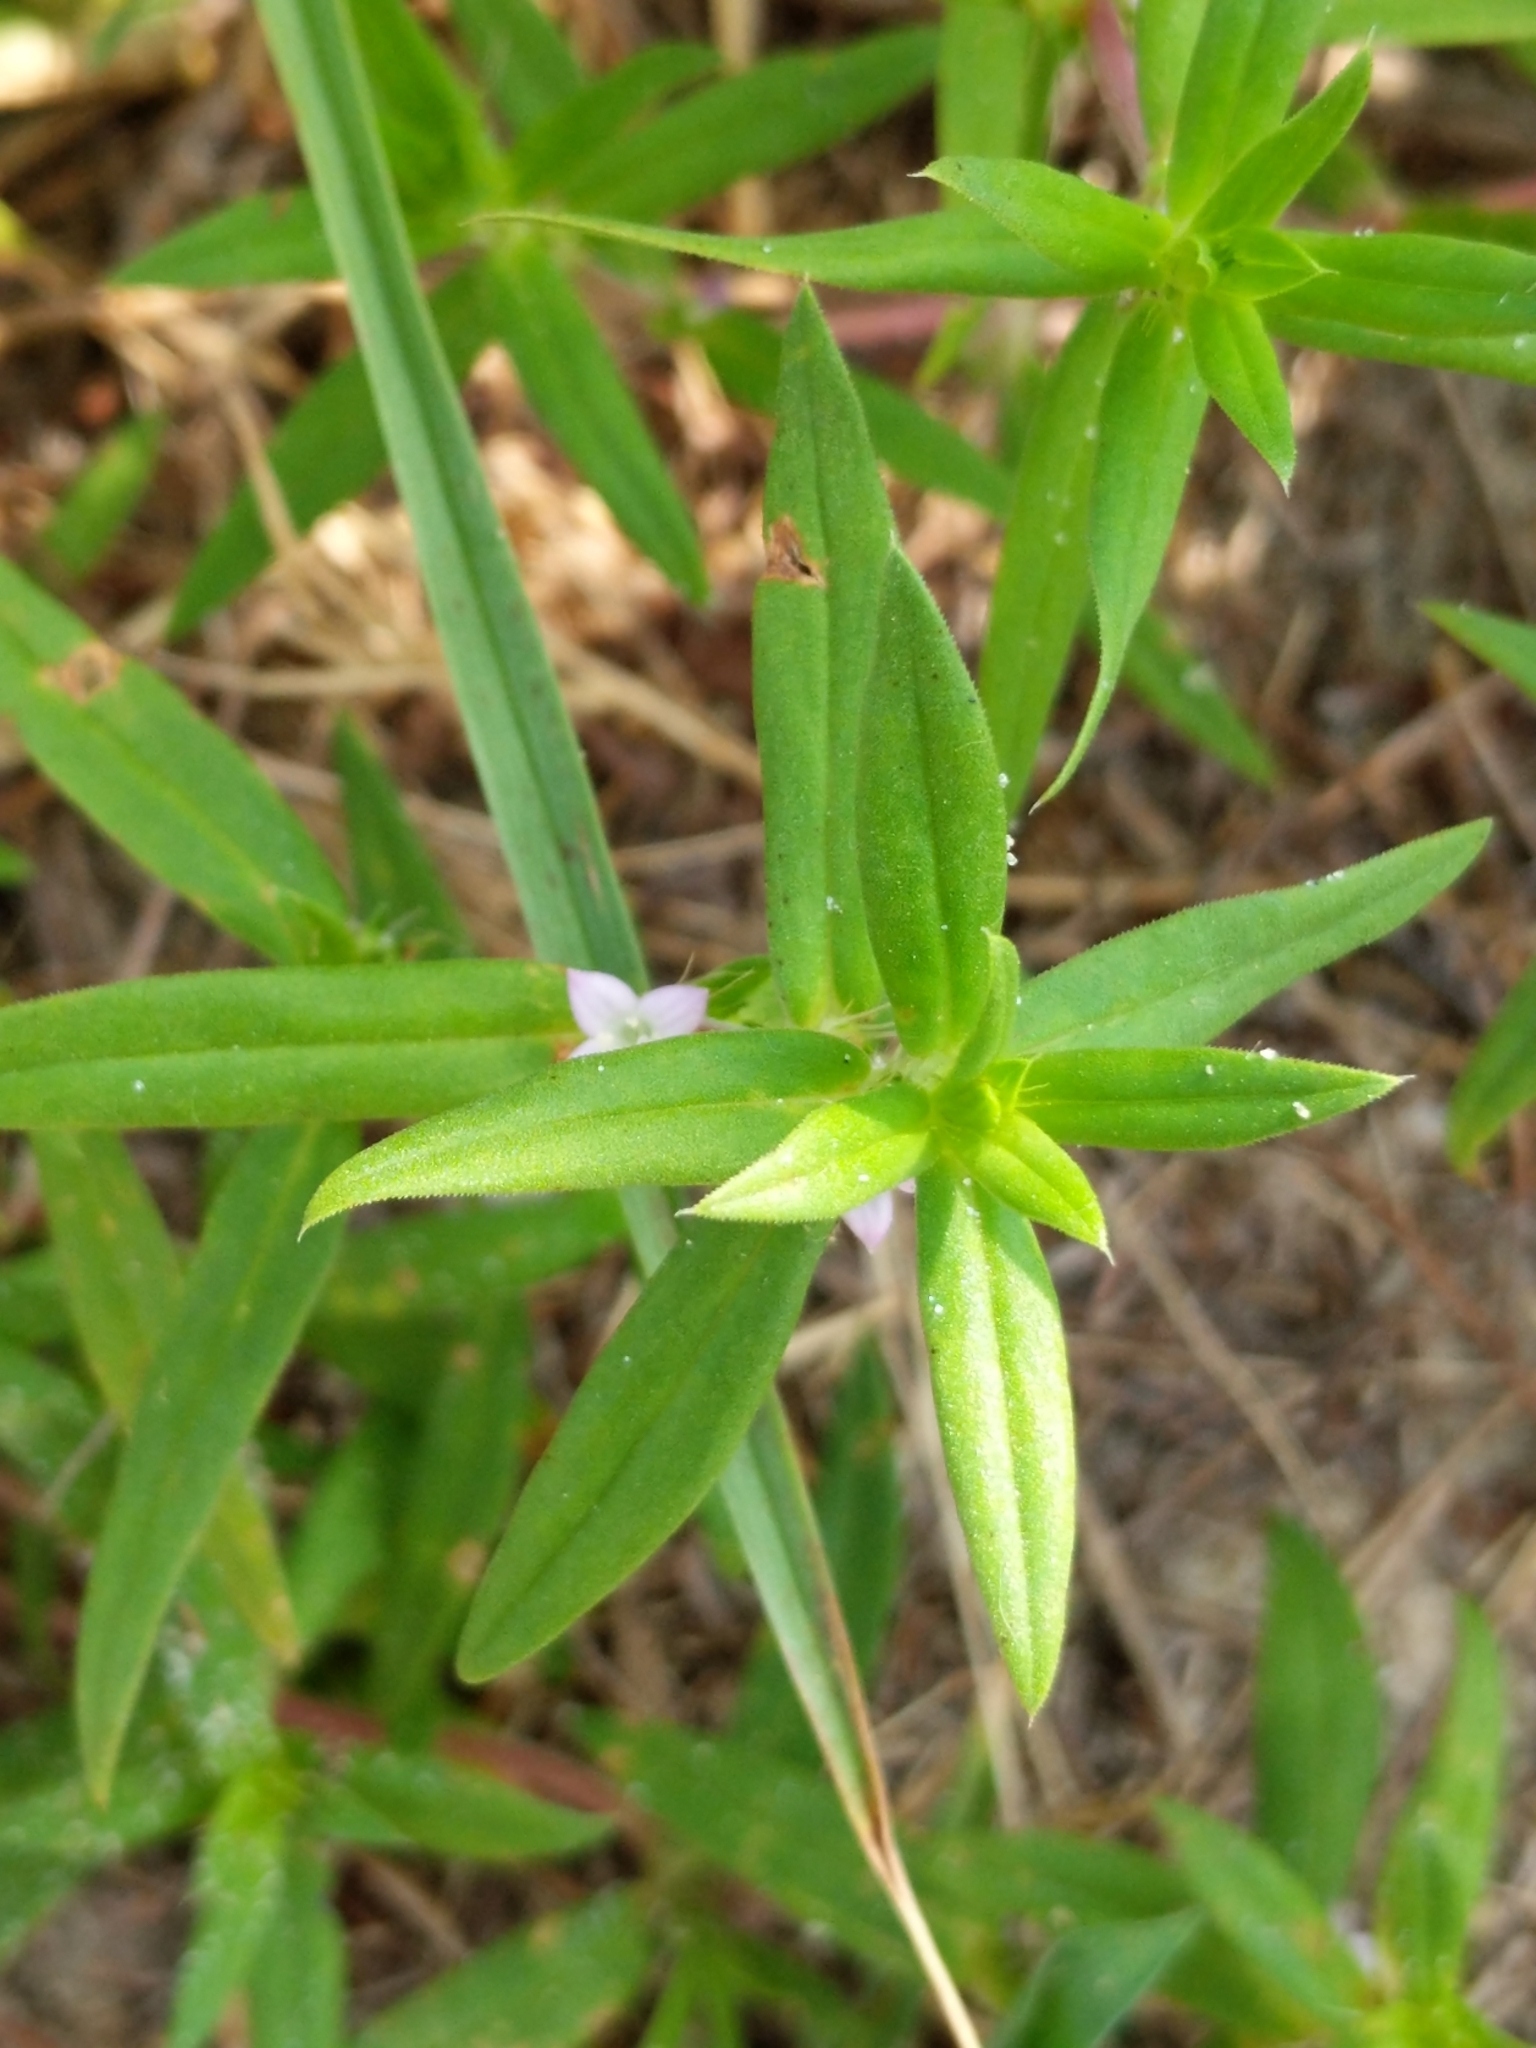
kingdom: Plantae
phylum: Tracheophyta
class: Magnoliopsida
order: Gentianales
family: Rubiaceae
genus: Hexasepalum
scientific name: Hexasepalum teres
